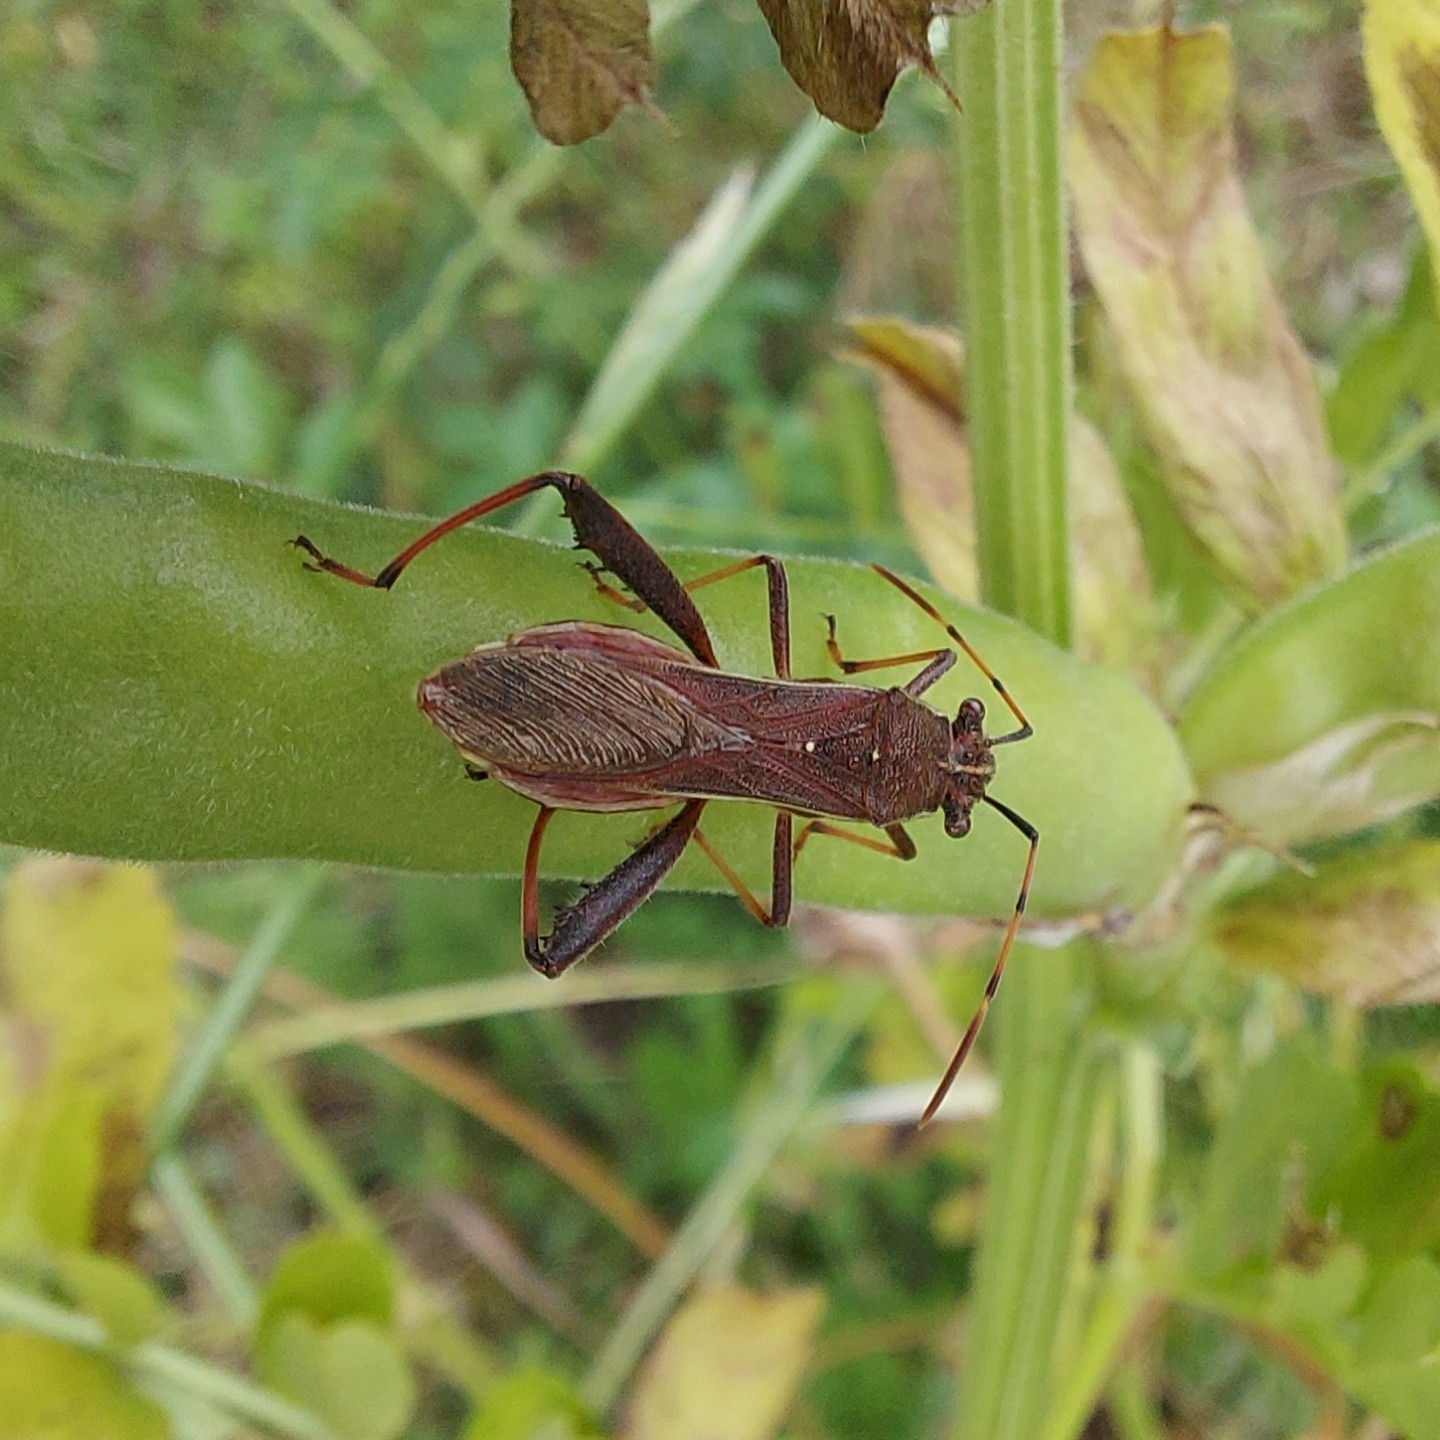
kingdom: Animalia
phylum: Arthropoda
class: Insecta
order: Hemiptera
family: Alydidae
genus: Camptopus
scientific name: Camptopus lateralis
